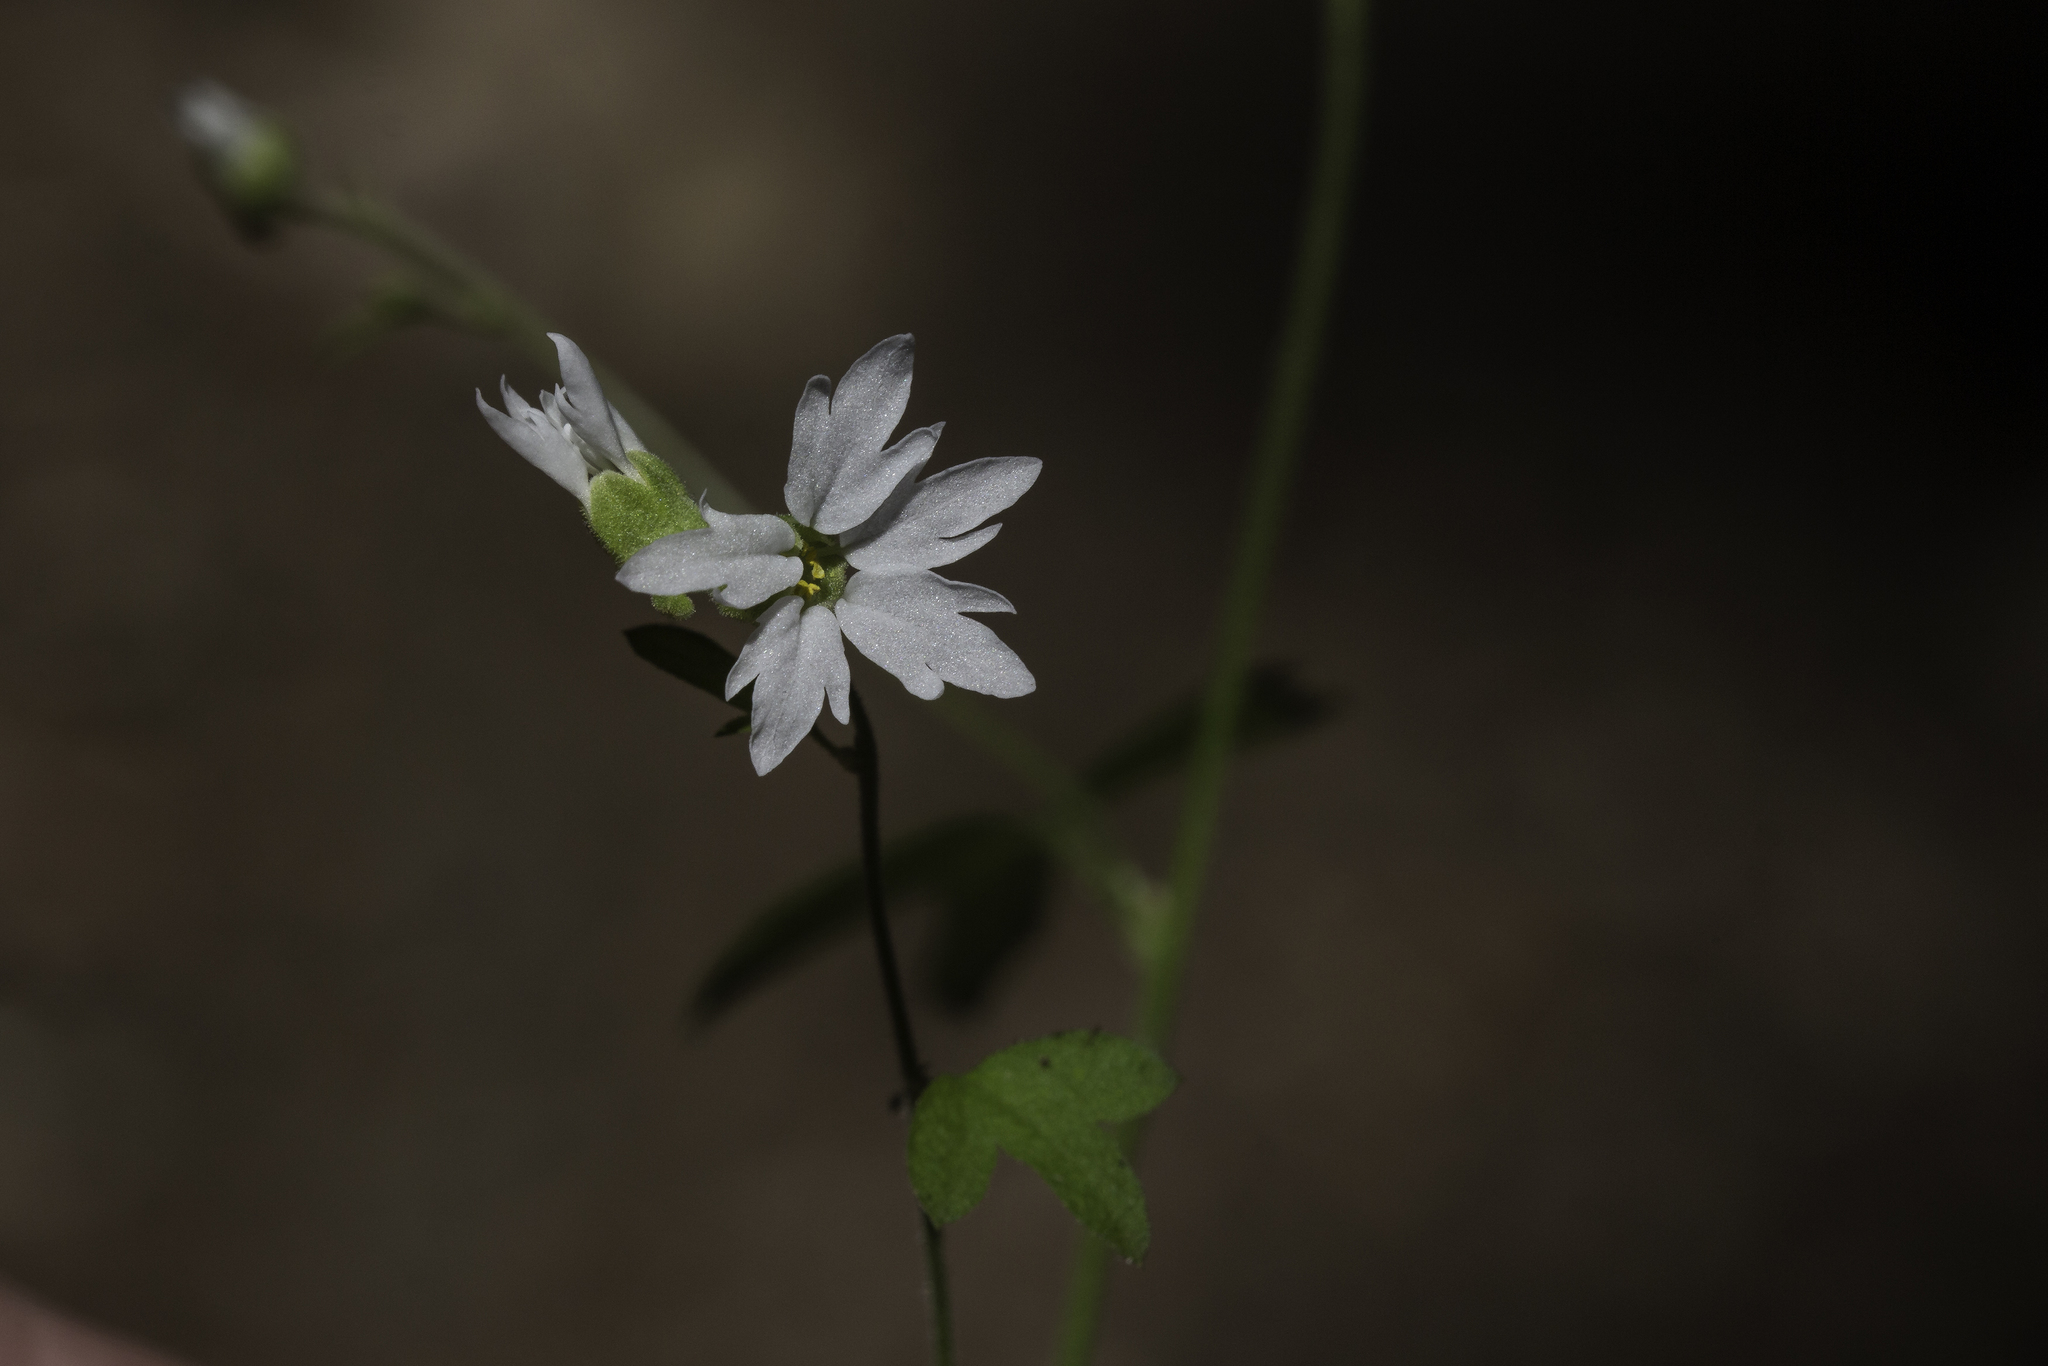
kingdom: Plantae
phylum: Tracheophyta
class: Magnoliopsida
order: Saxifragales
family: Saxifragaceae
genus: Lithophragma
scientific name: Lithophragma heterophyllum
